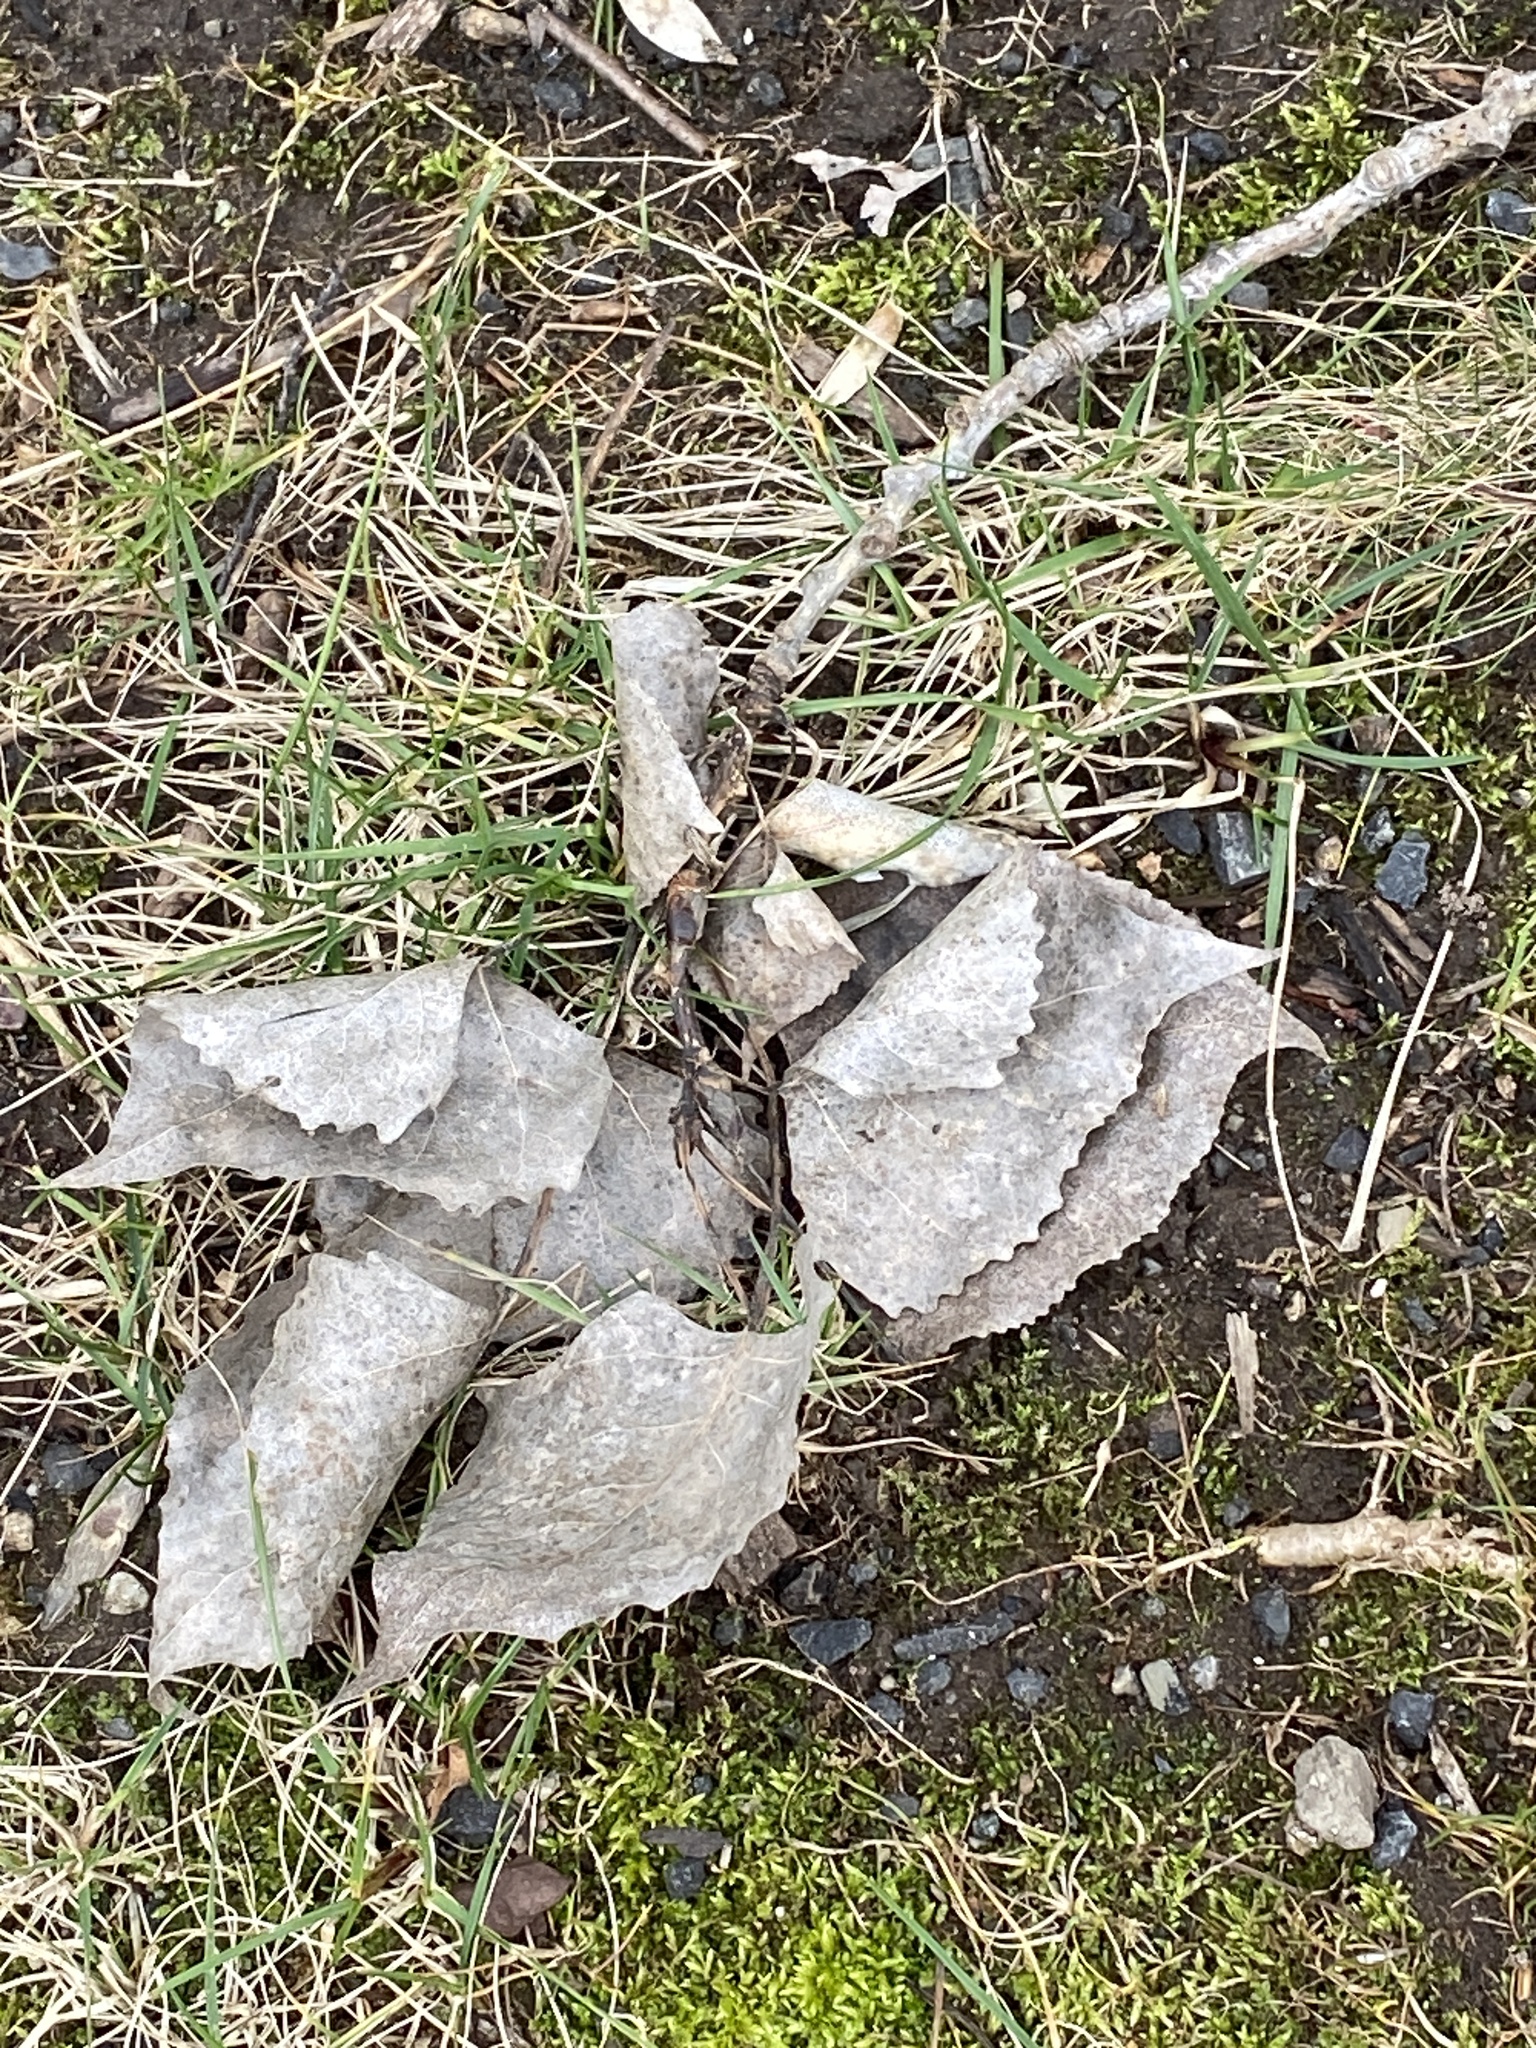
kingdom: Plantae
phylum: Tracheophyta
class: Magnoliopsida
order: Malpighiales
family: Salicaceae
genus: Populus
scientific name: Populus deltoides
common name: Eastern cottonwood
